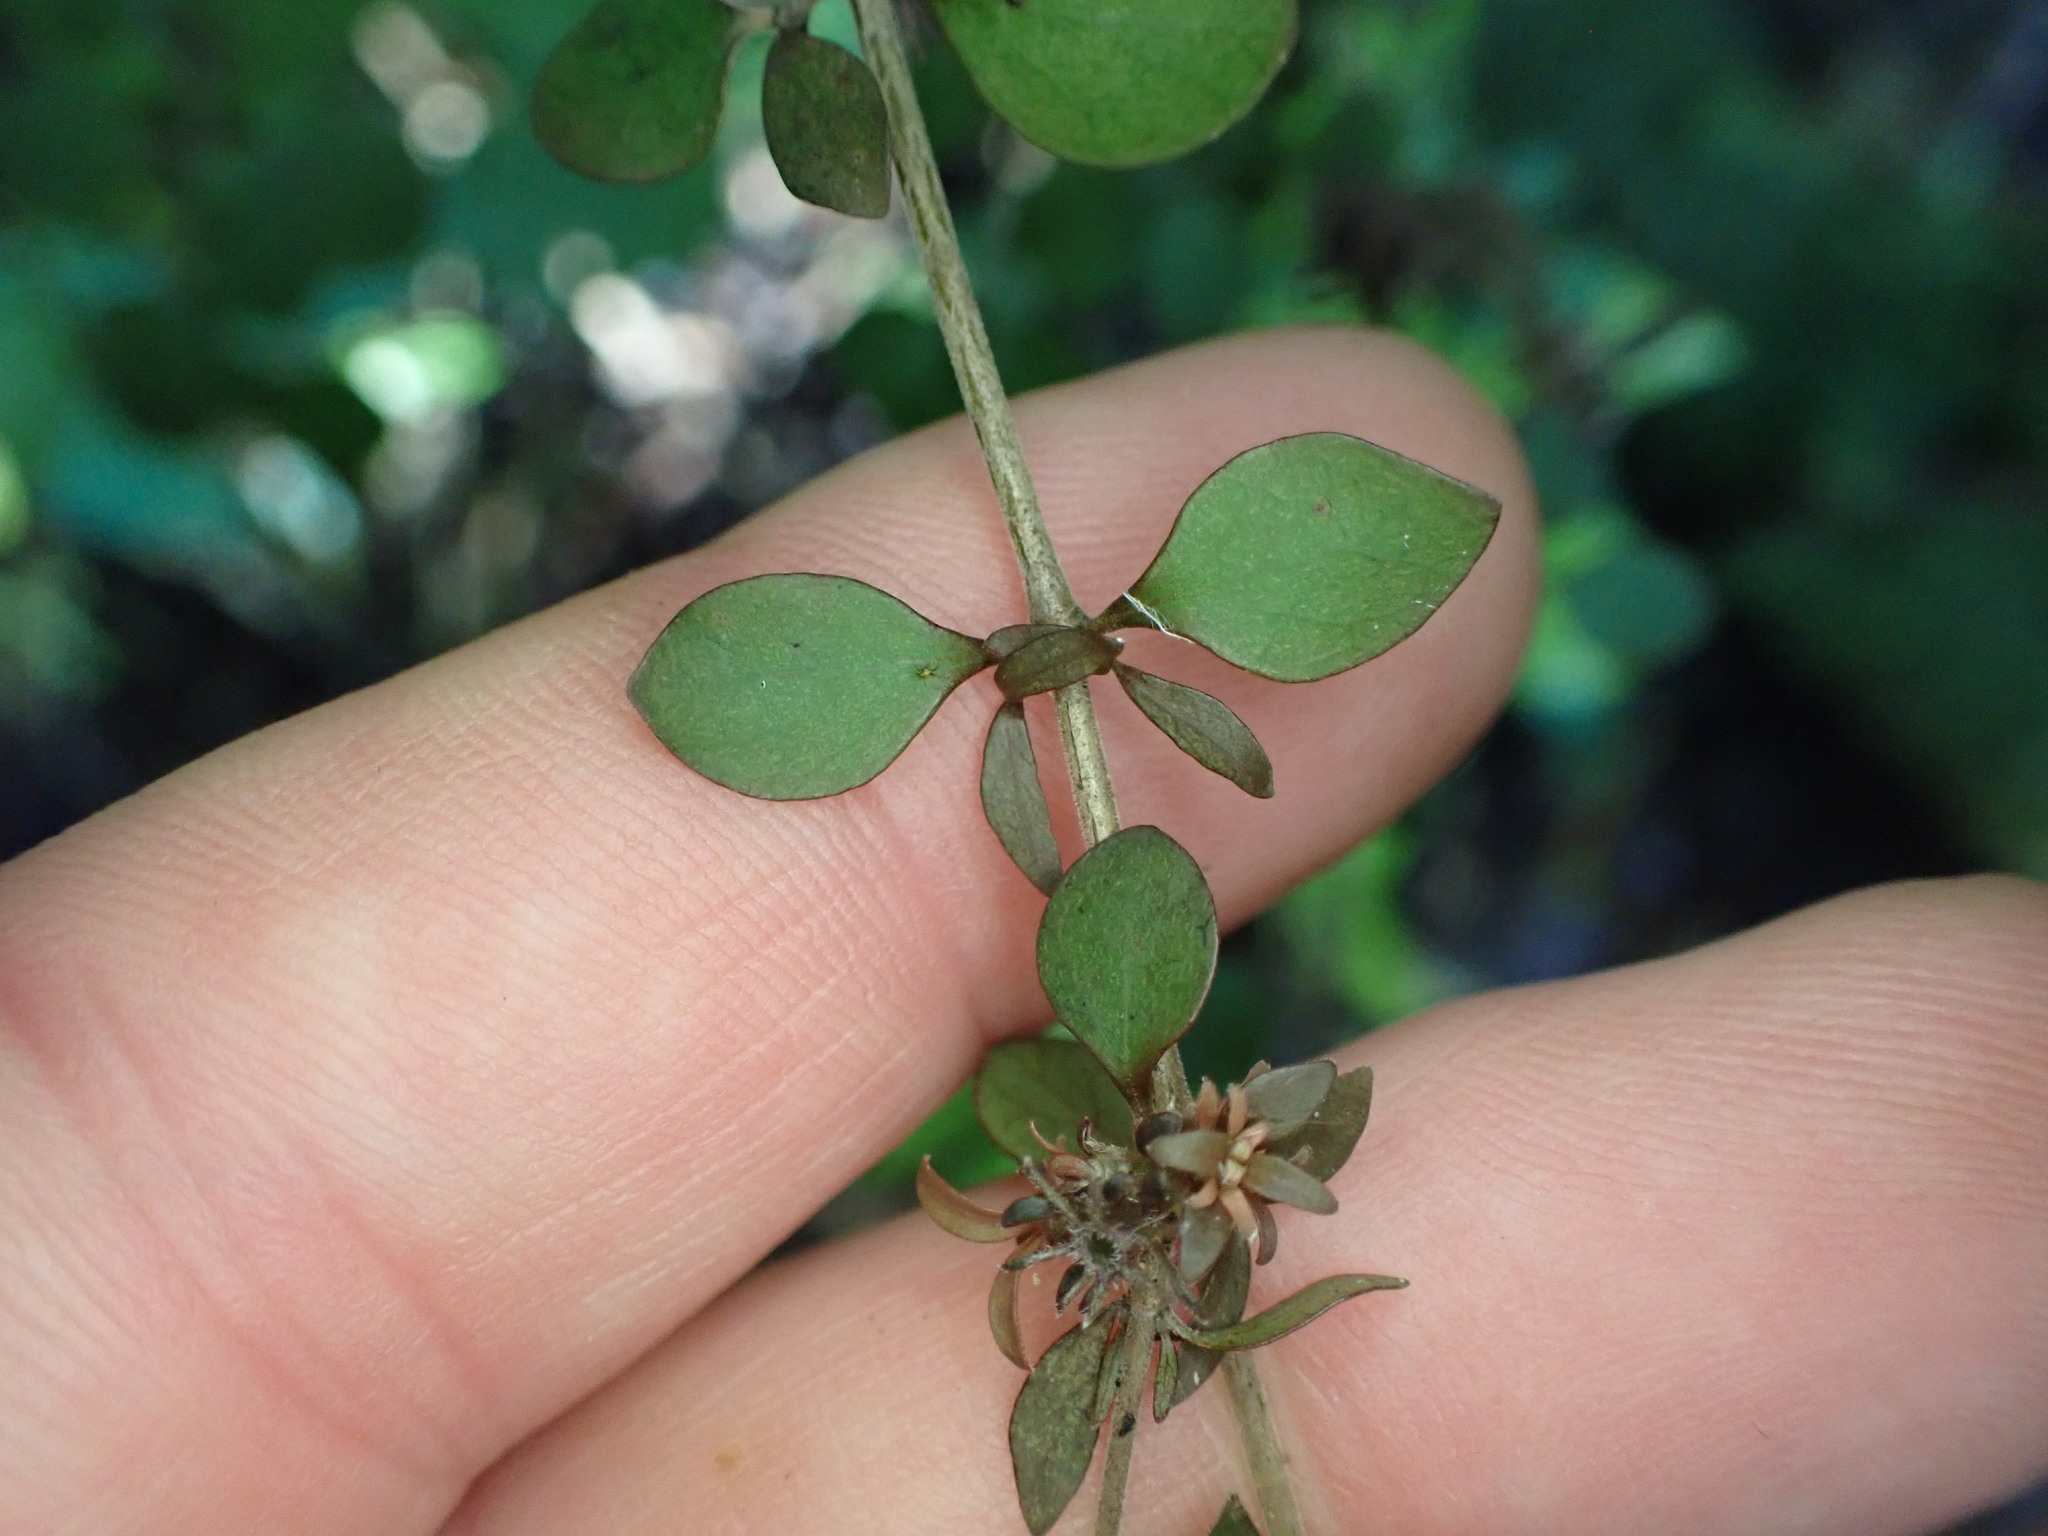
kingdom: Plantae
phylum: Tracheophyta
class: Magnoliopsida
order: Gentianales
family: Rubiaceae
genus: Coprosma
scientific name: Coprosma rhamnoides
